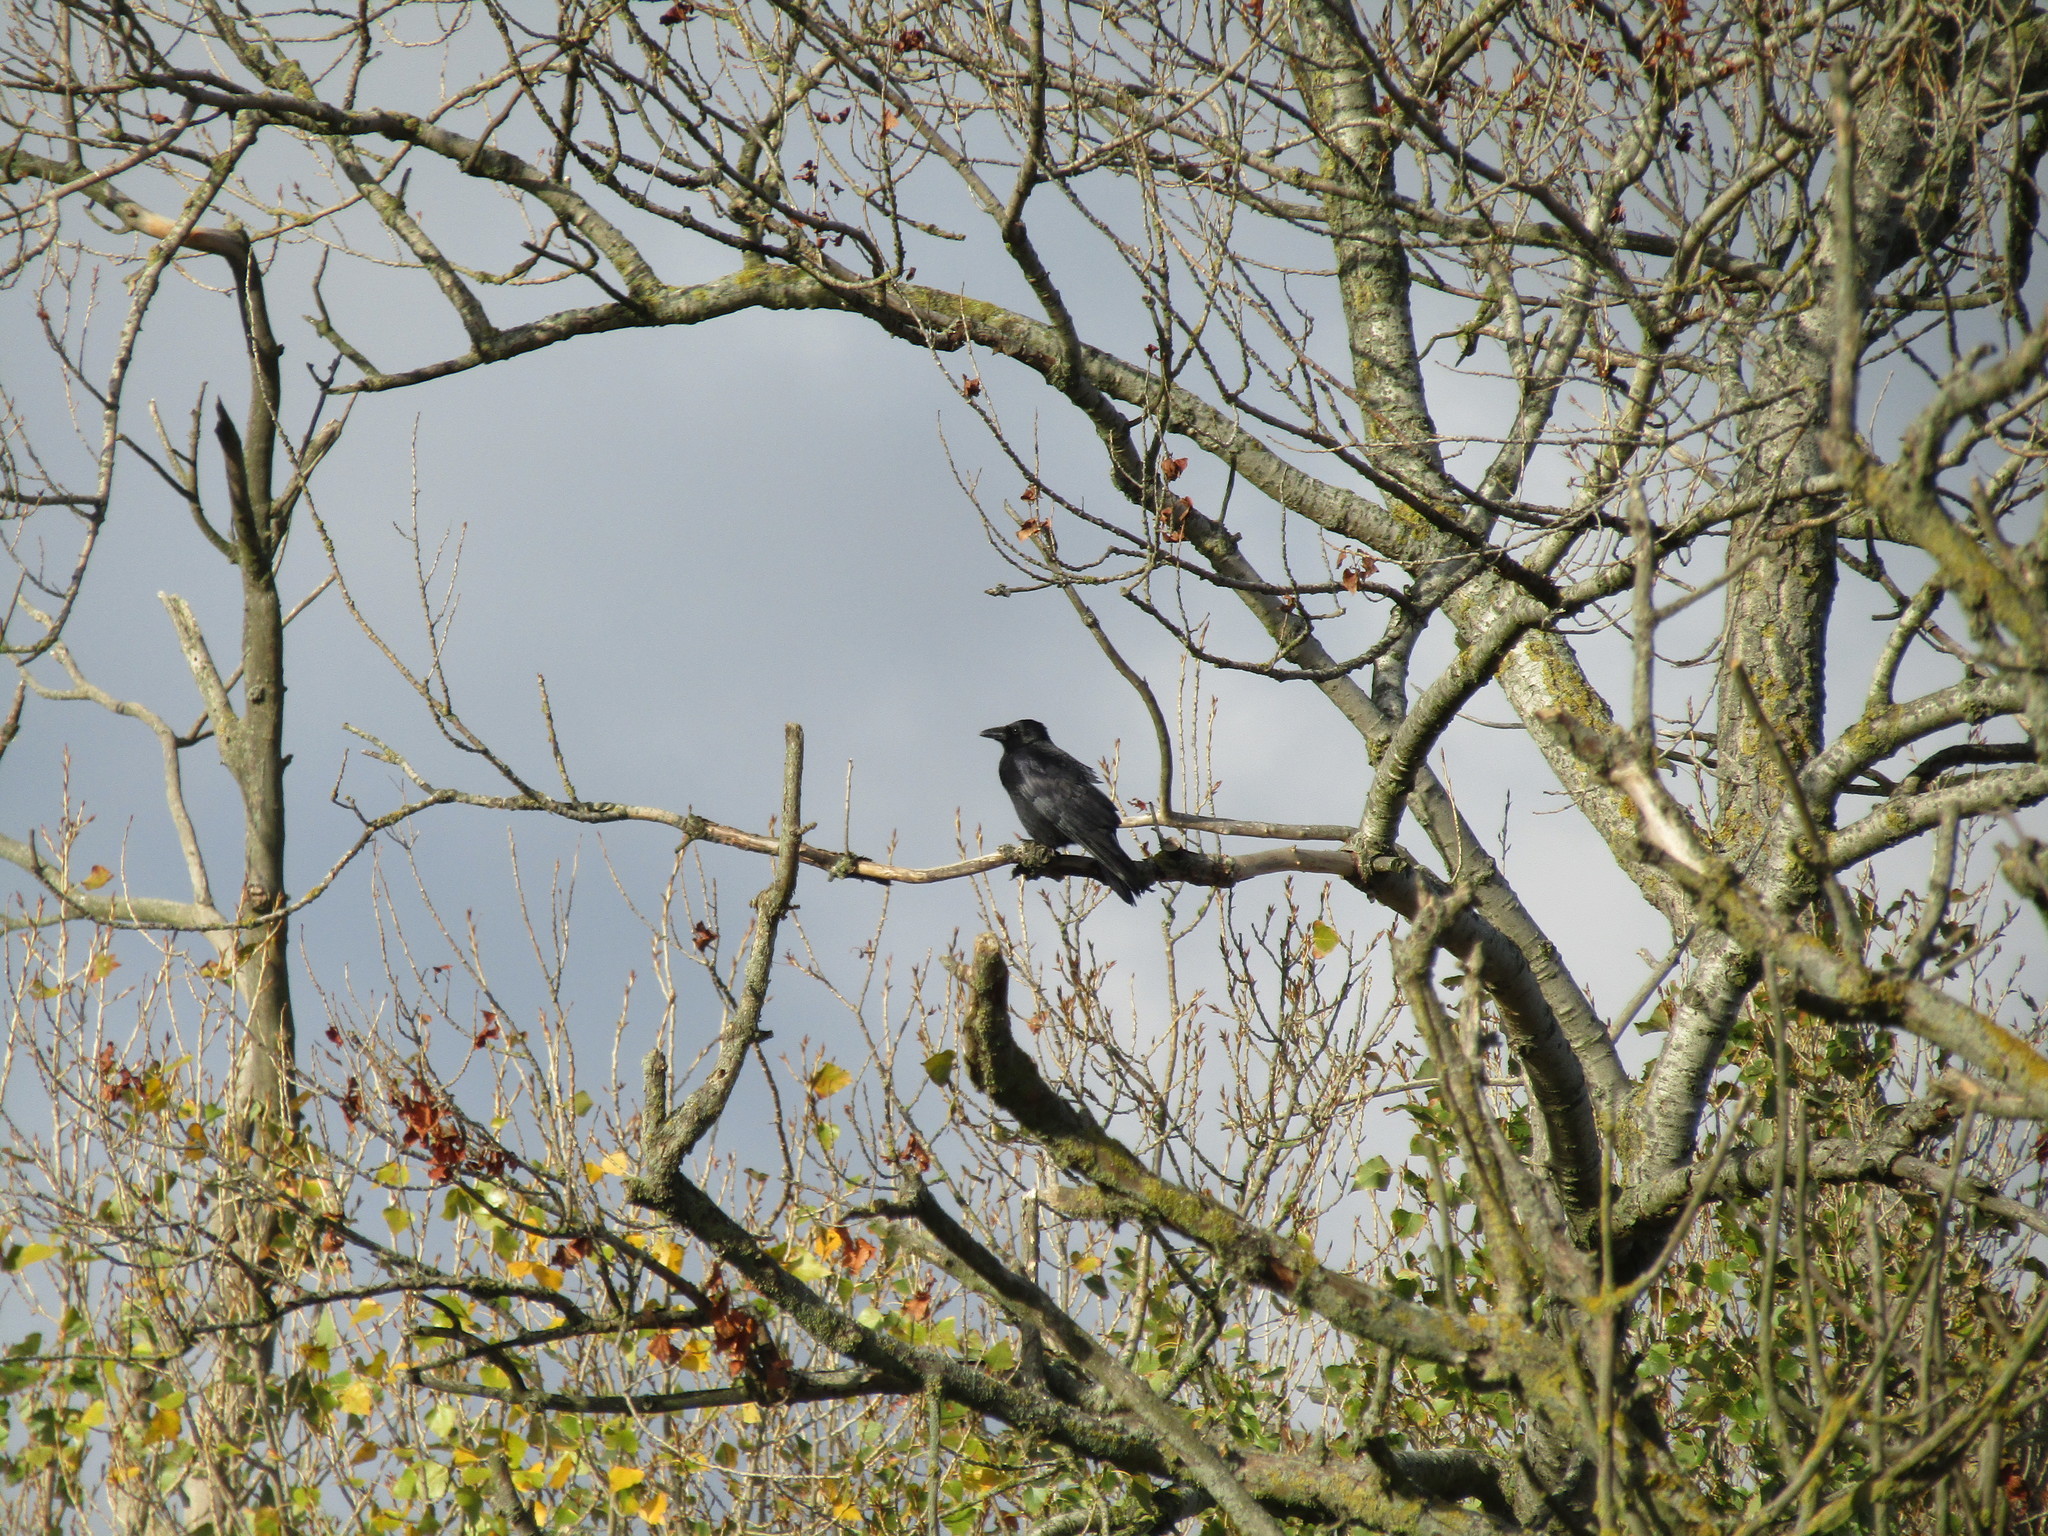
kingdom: Animalia
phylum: Chordata
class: Aves
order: Passeriformes
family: Corvidae
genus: Corvus
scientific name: Corvus corone
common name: Carrion crow
